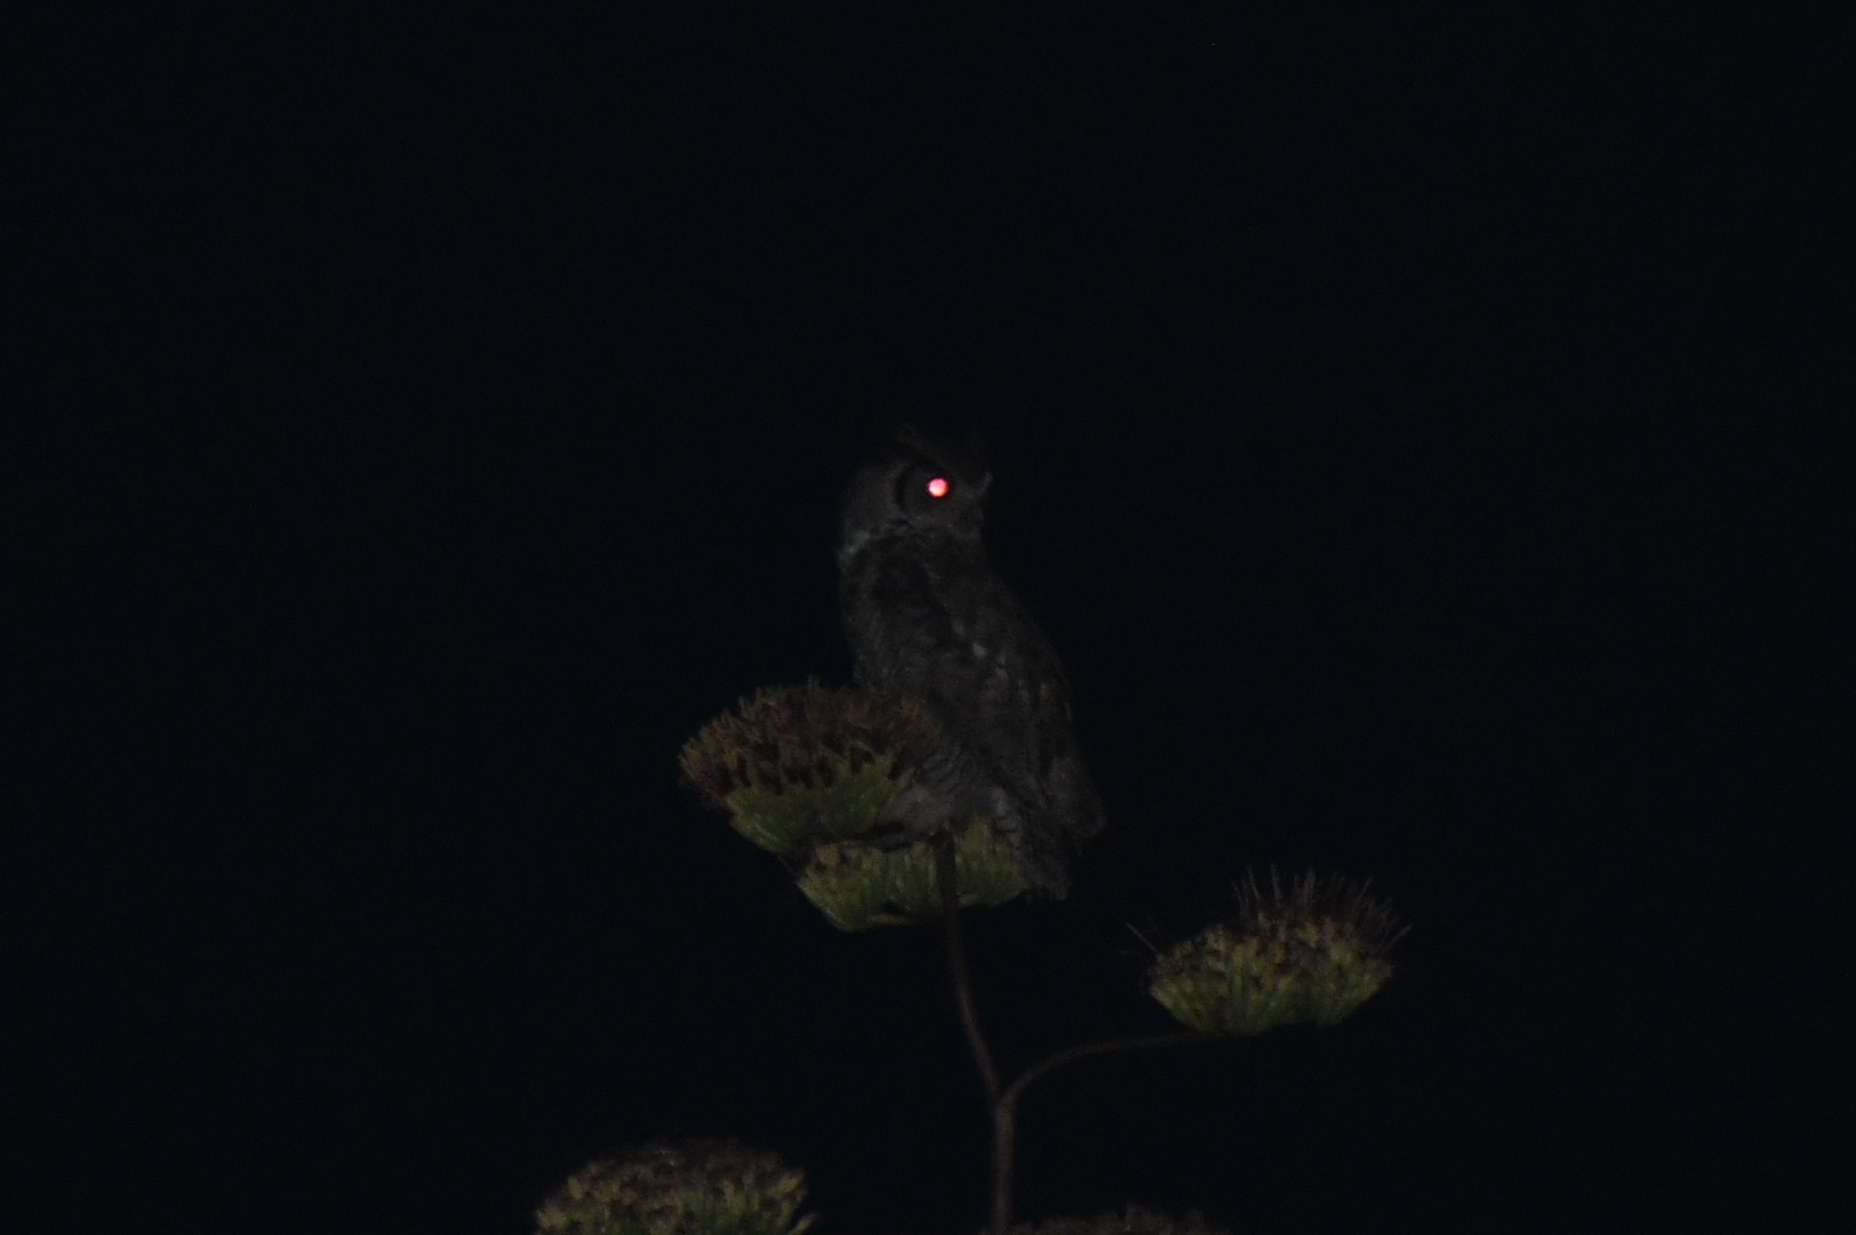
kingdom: Animalia
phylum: Chordata
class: Aves
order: Strigiformes
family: Strigidae
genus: Bubo
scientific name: Bubo virginianus
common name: Great horned owl
